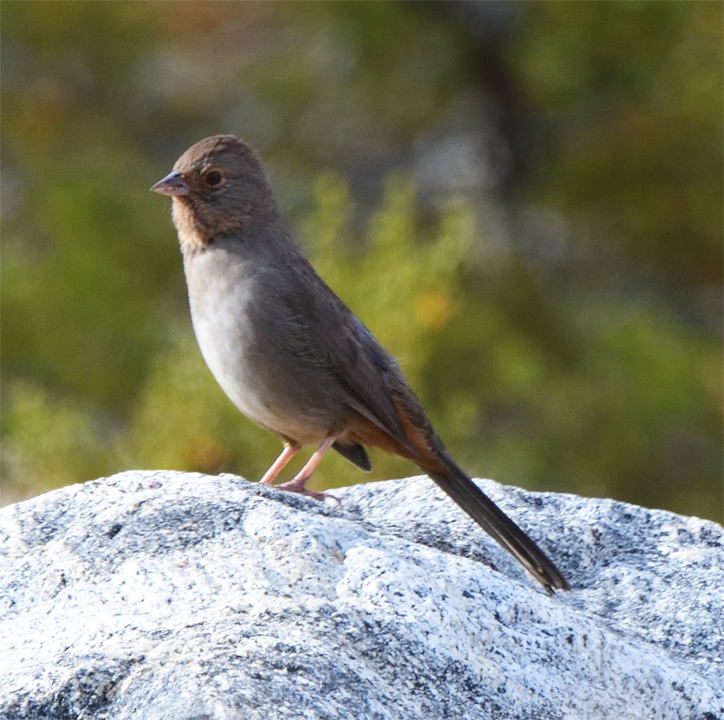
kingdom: Animalia
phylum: Chordata
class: Aves
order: Passeriformes
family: Passerellidae
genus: Melozone
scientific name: Melozone crissalis
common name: California towhee
